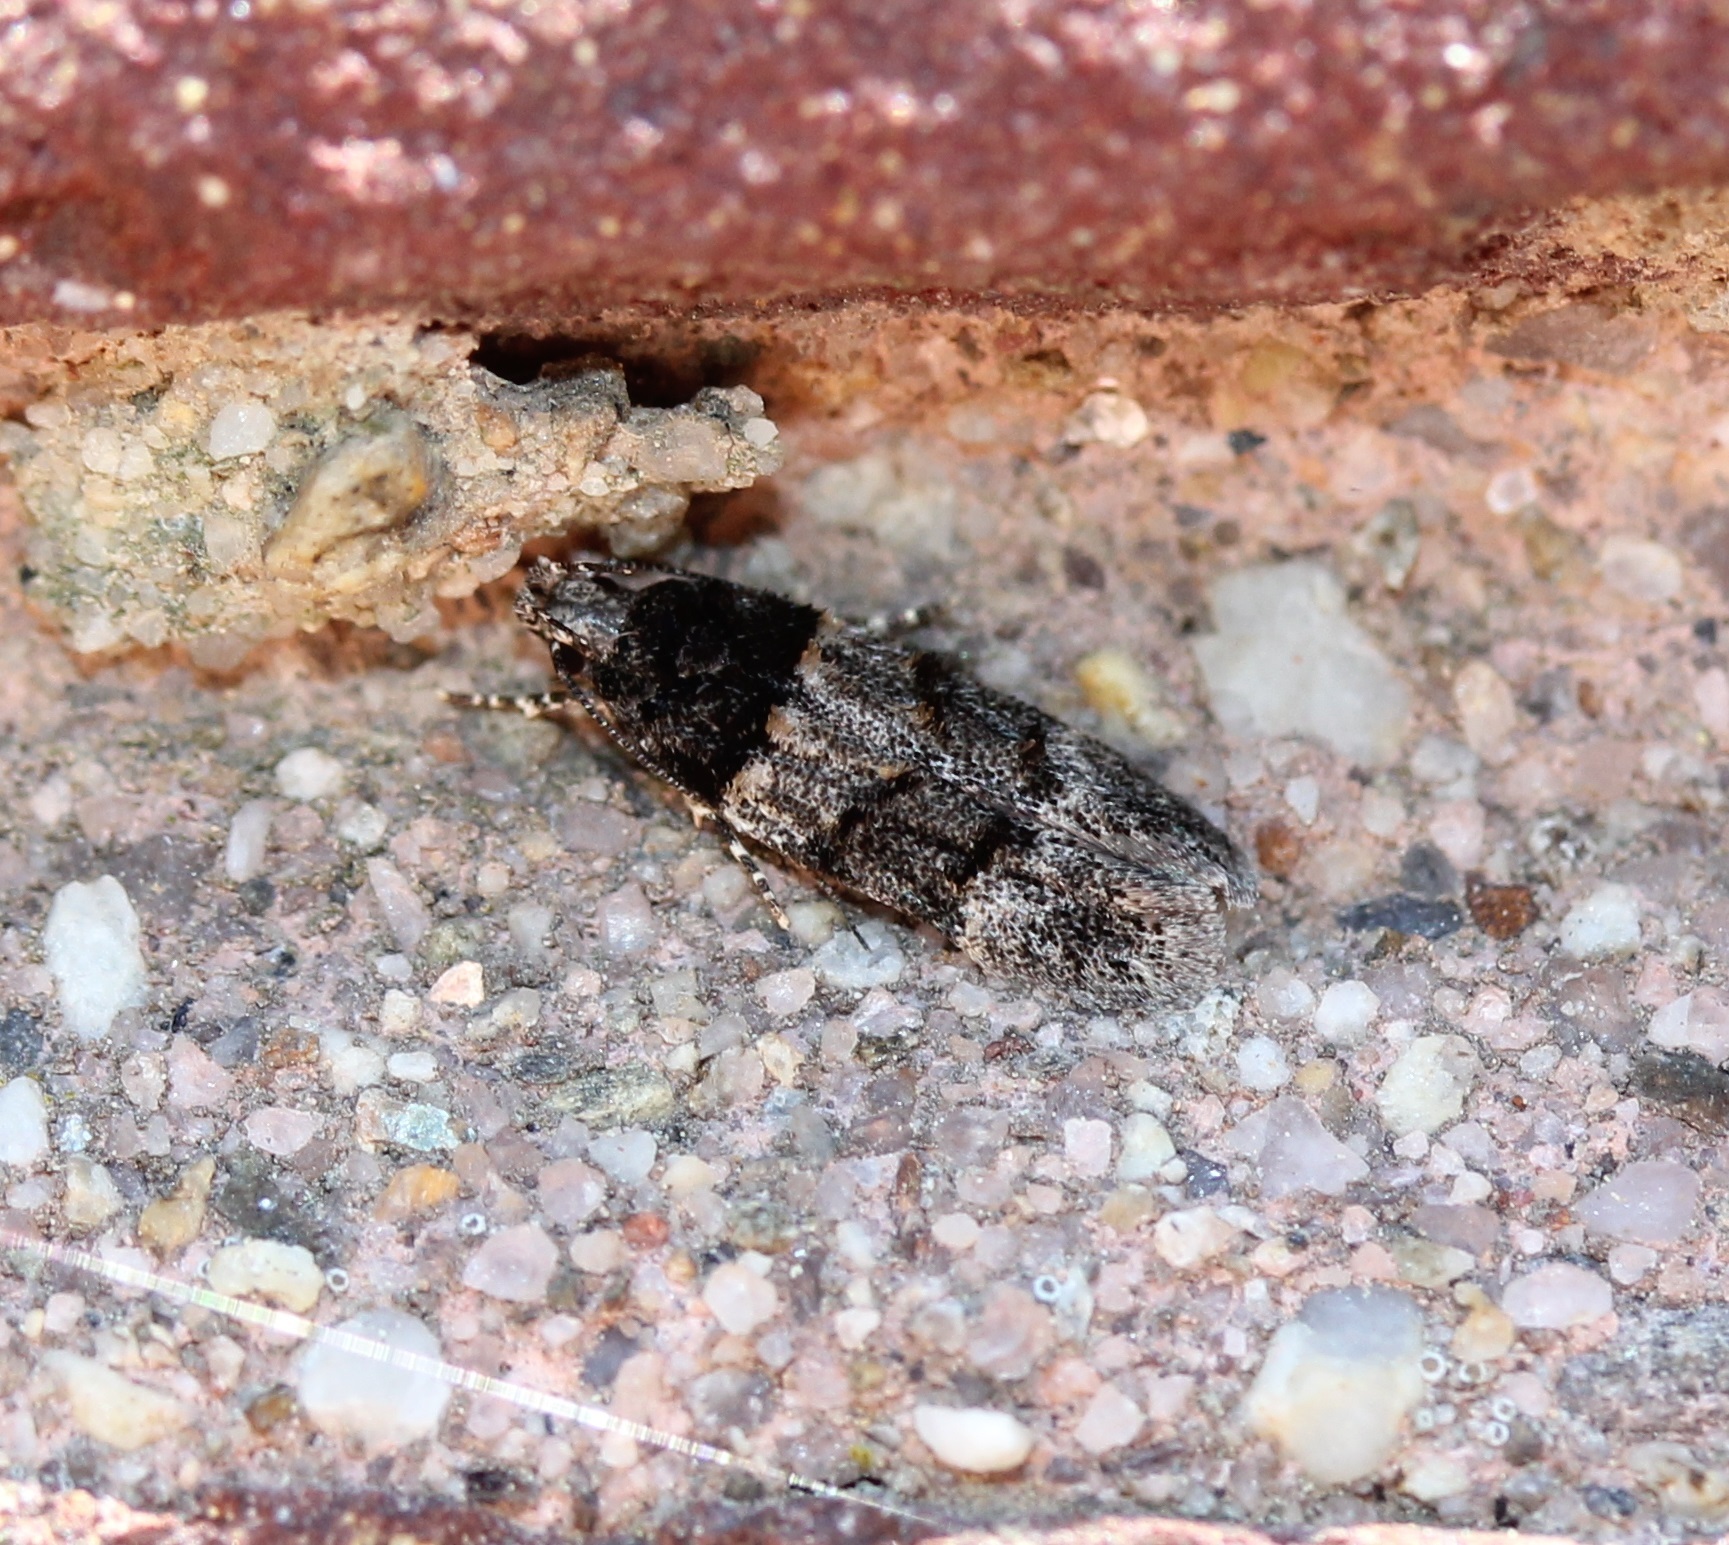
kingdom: Animalia
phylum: Arthropoda
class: Insecta
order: Lepidoptera
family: Gelechiidae
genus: Pubitelphusa
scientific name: Pubitelphusa latifasciella
